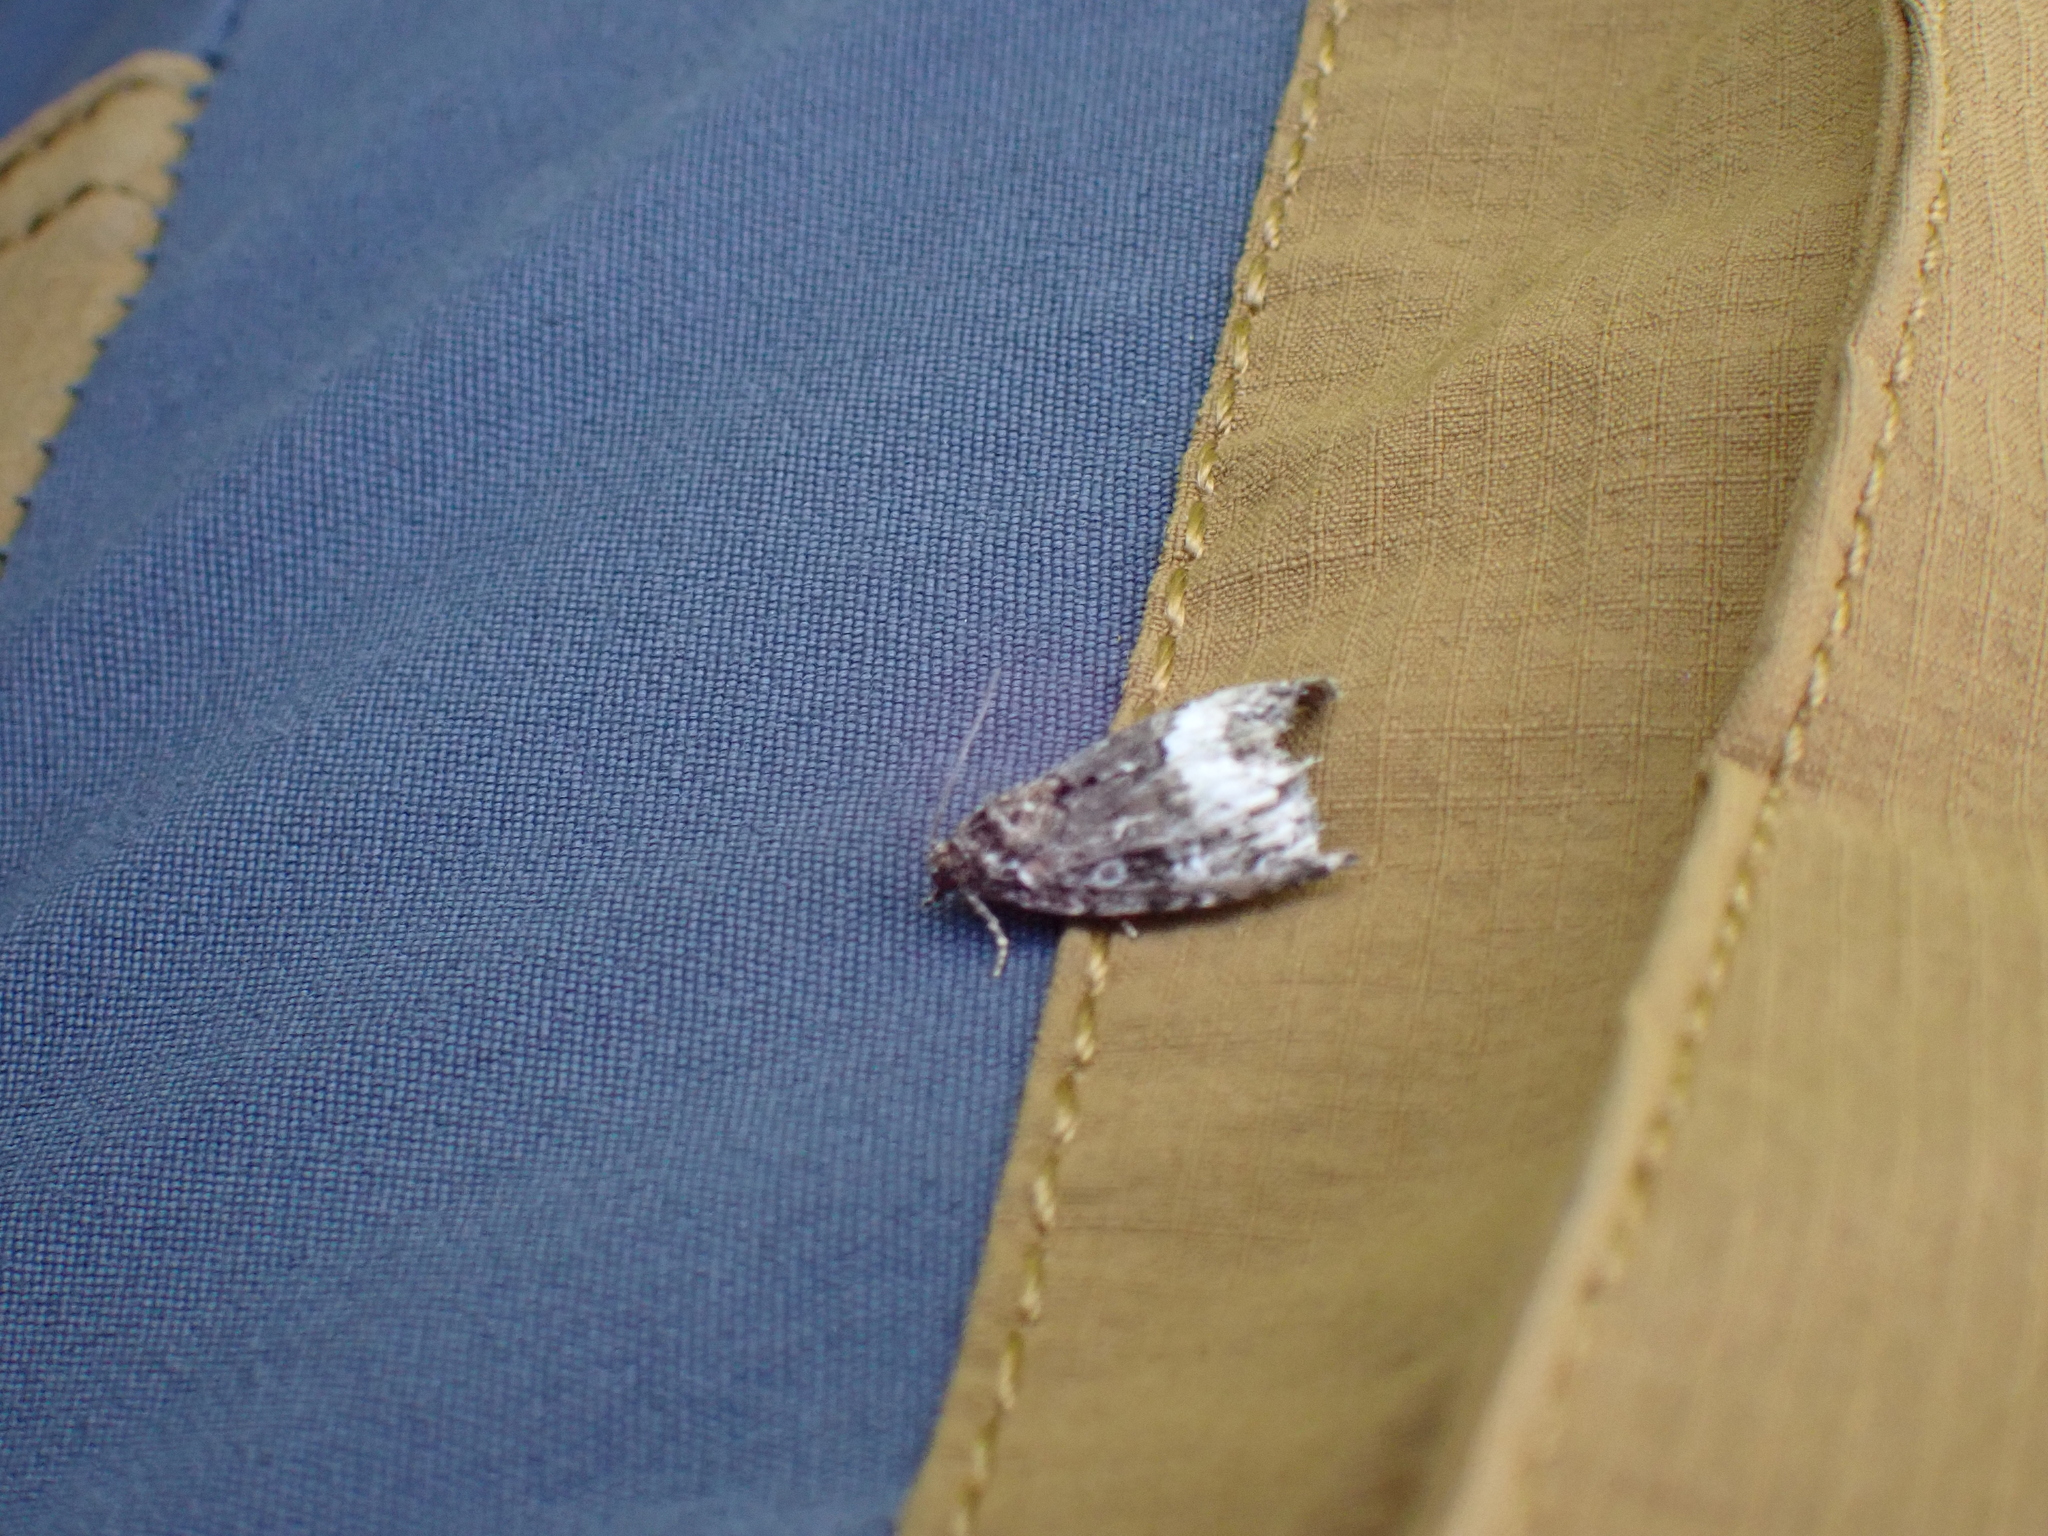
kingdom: Animalia
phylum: Arthropoda
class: Insecta
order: Lepidoptera
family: Noctuidae
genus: Deltote
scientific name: Deltote pygarga
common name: Marbled white spot
